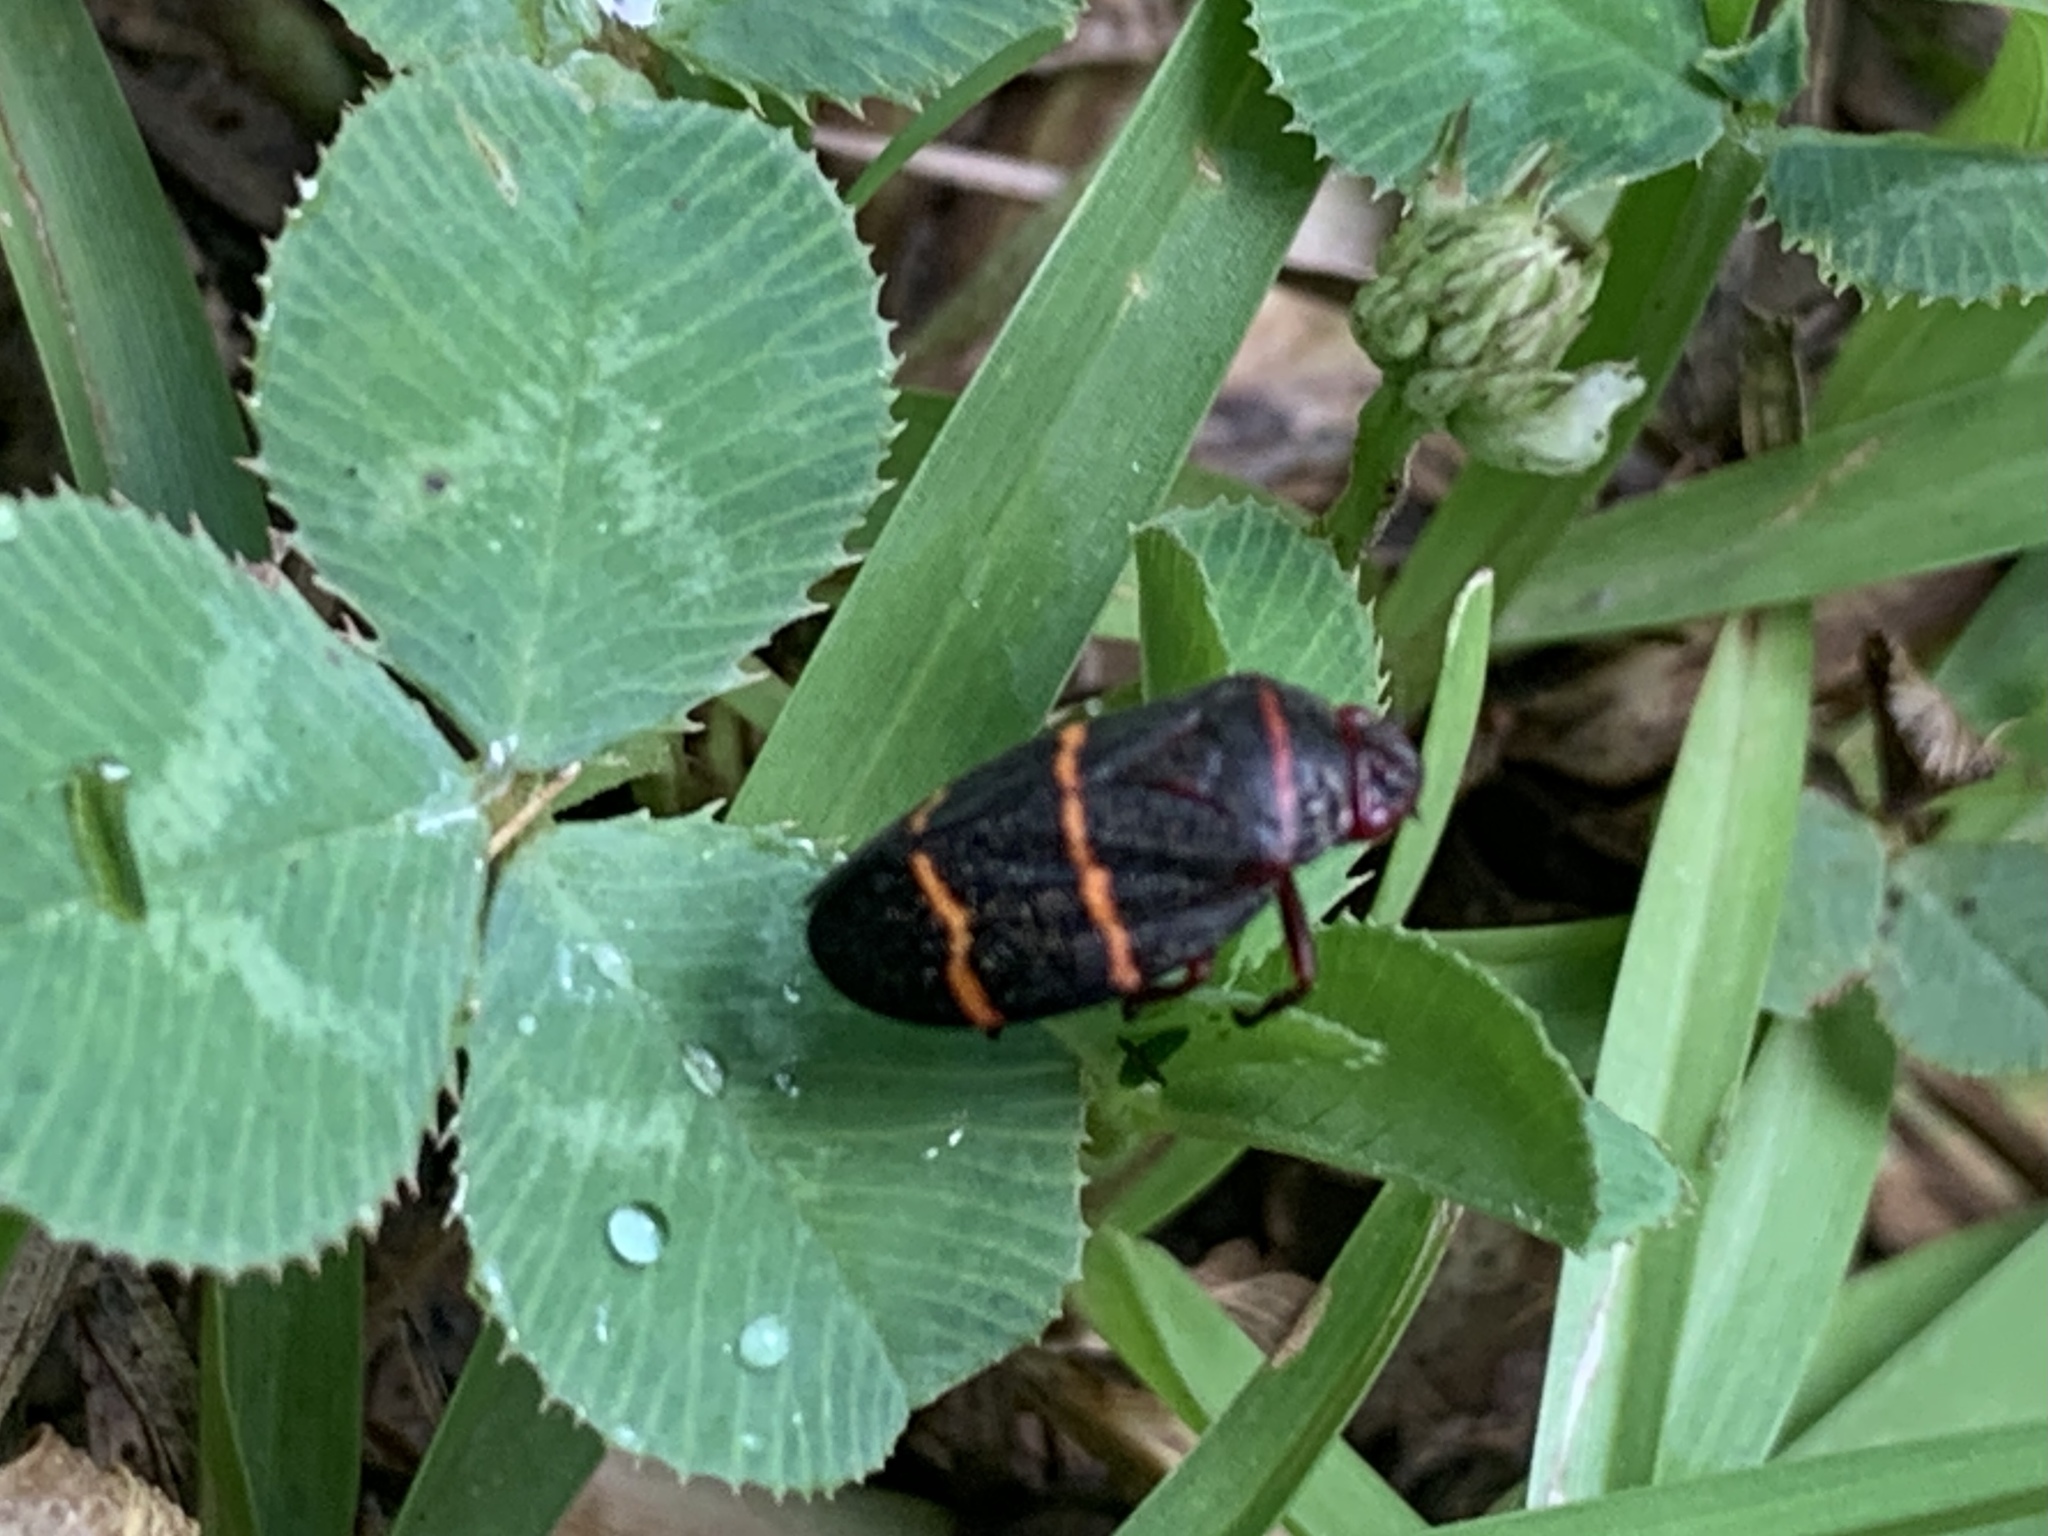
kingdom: Animalia
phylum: Arthropoda
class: Insecta
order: Hemiptera
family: Cercopidae
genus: Prosapia
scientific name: Prosapia bicincta
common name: Twolined spittlebug
